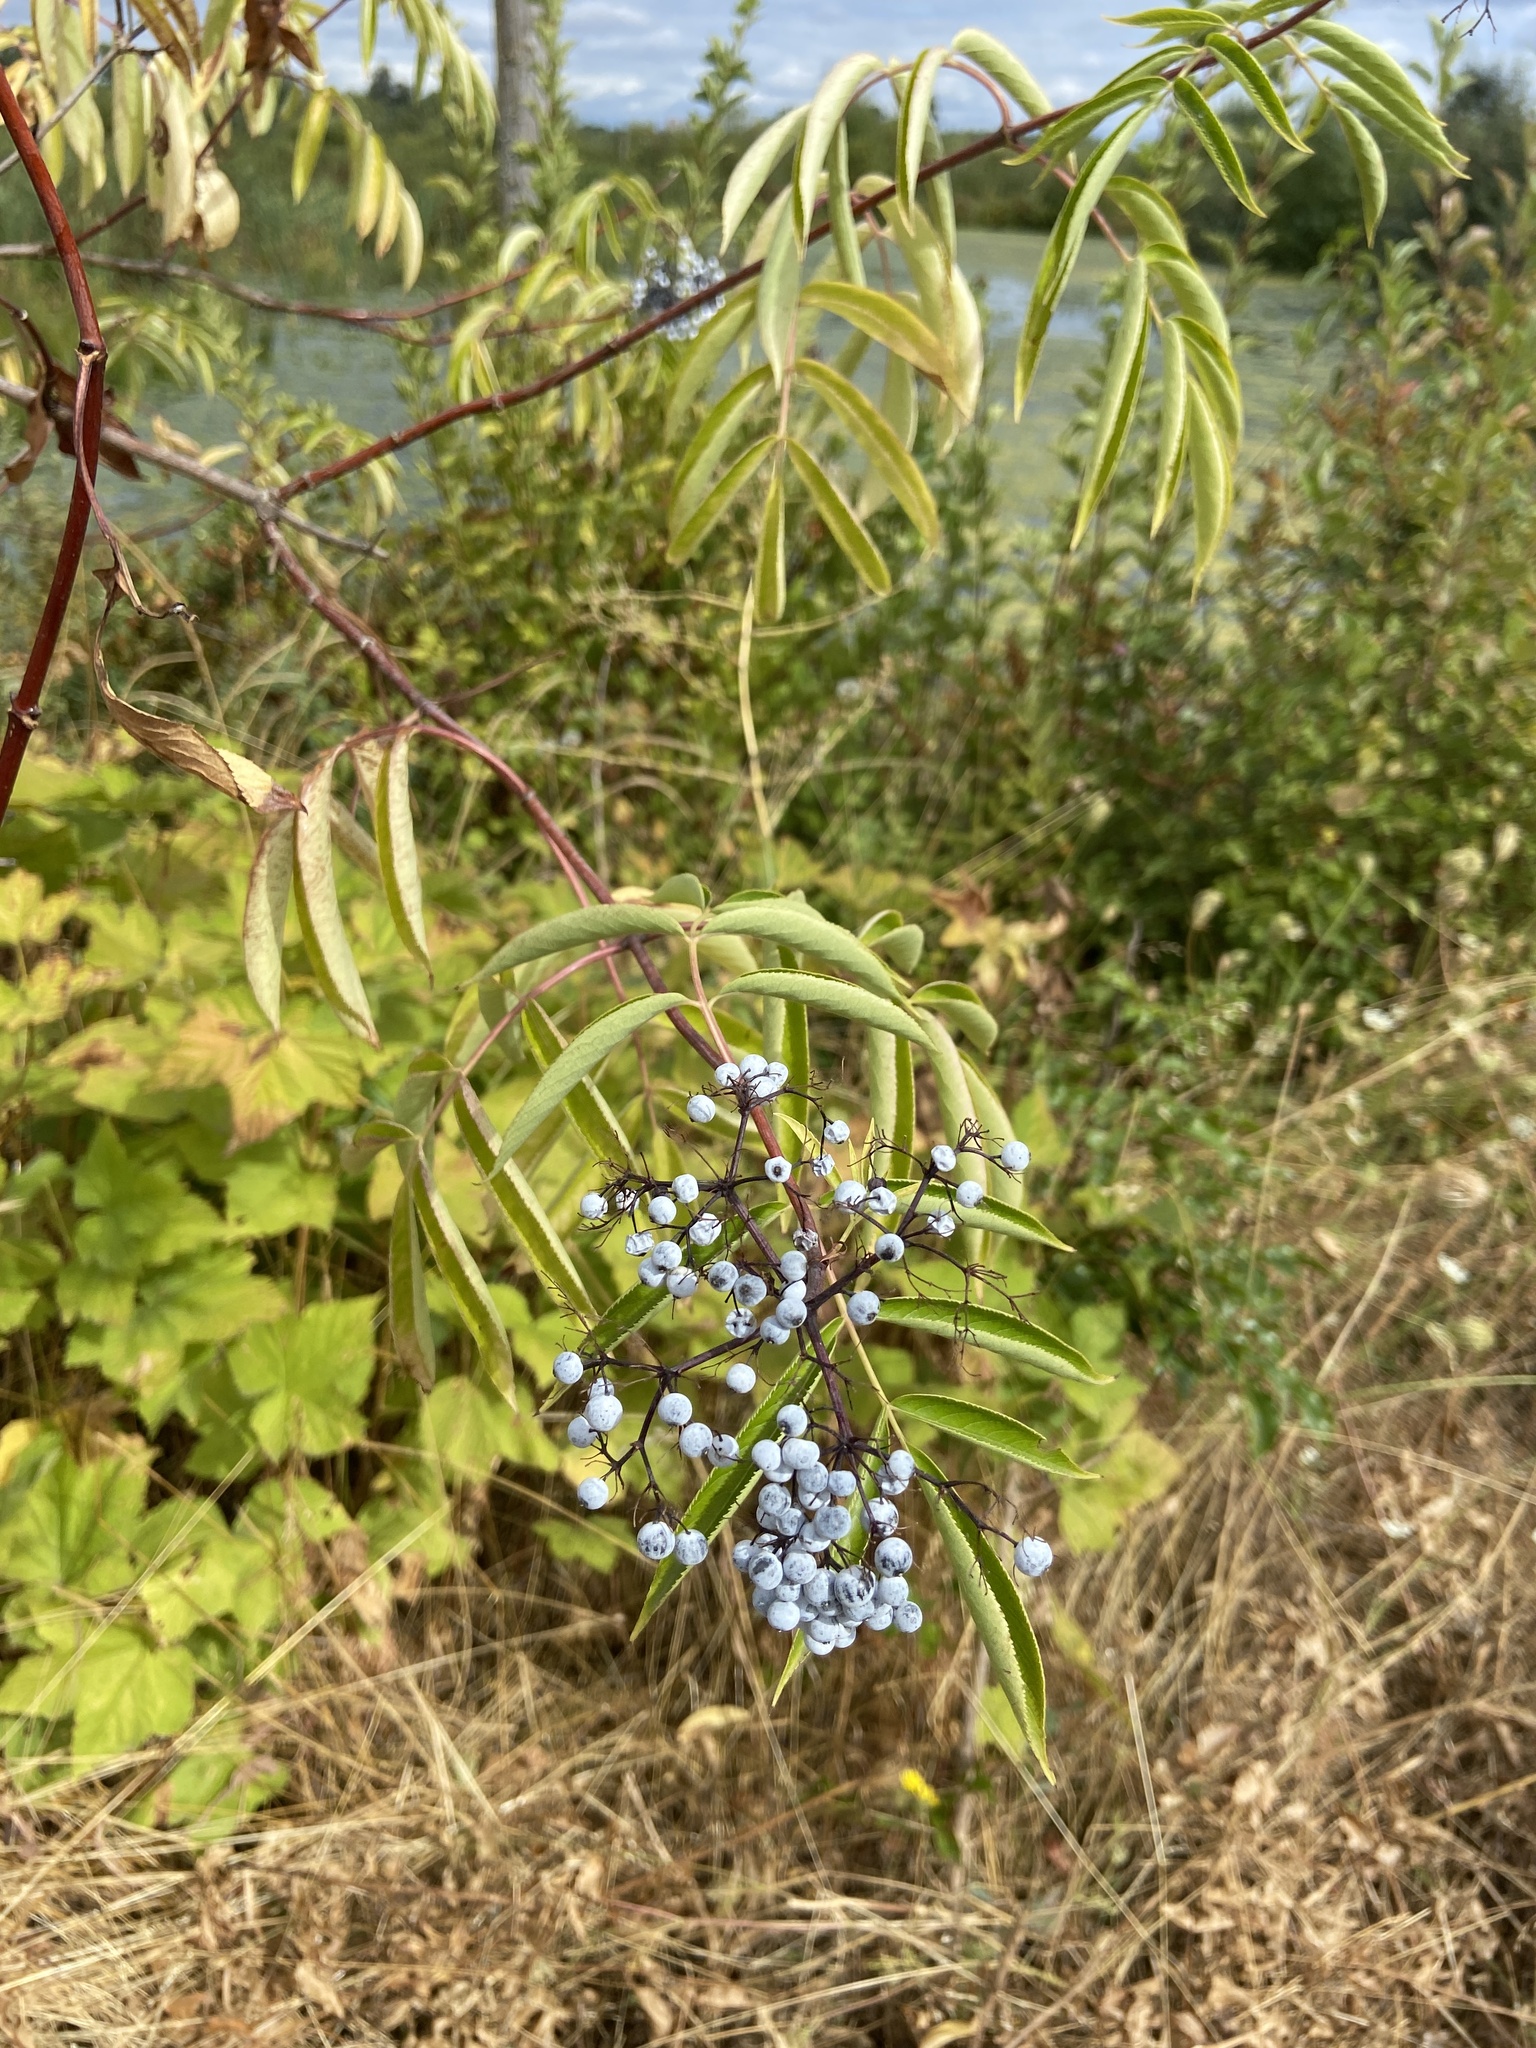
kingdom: Plantae
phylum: Tracheophyta
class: Magnoliopsida
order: Dipsacales
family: Viburnaceae
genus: Sambucus
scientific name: Sambucus cerulea
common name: Blue elder
